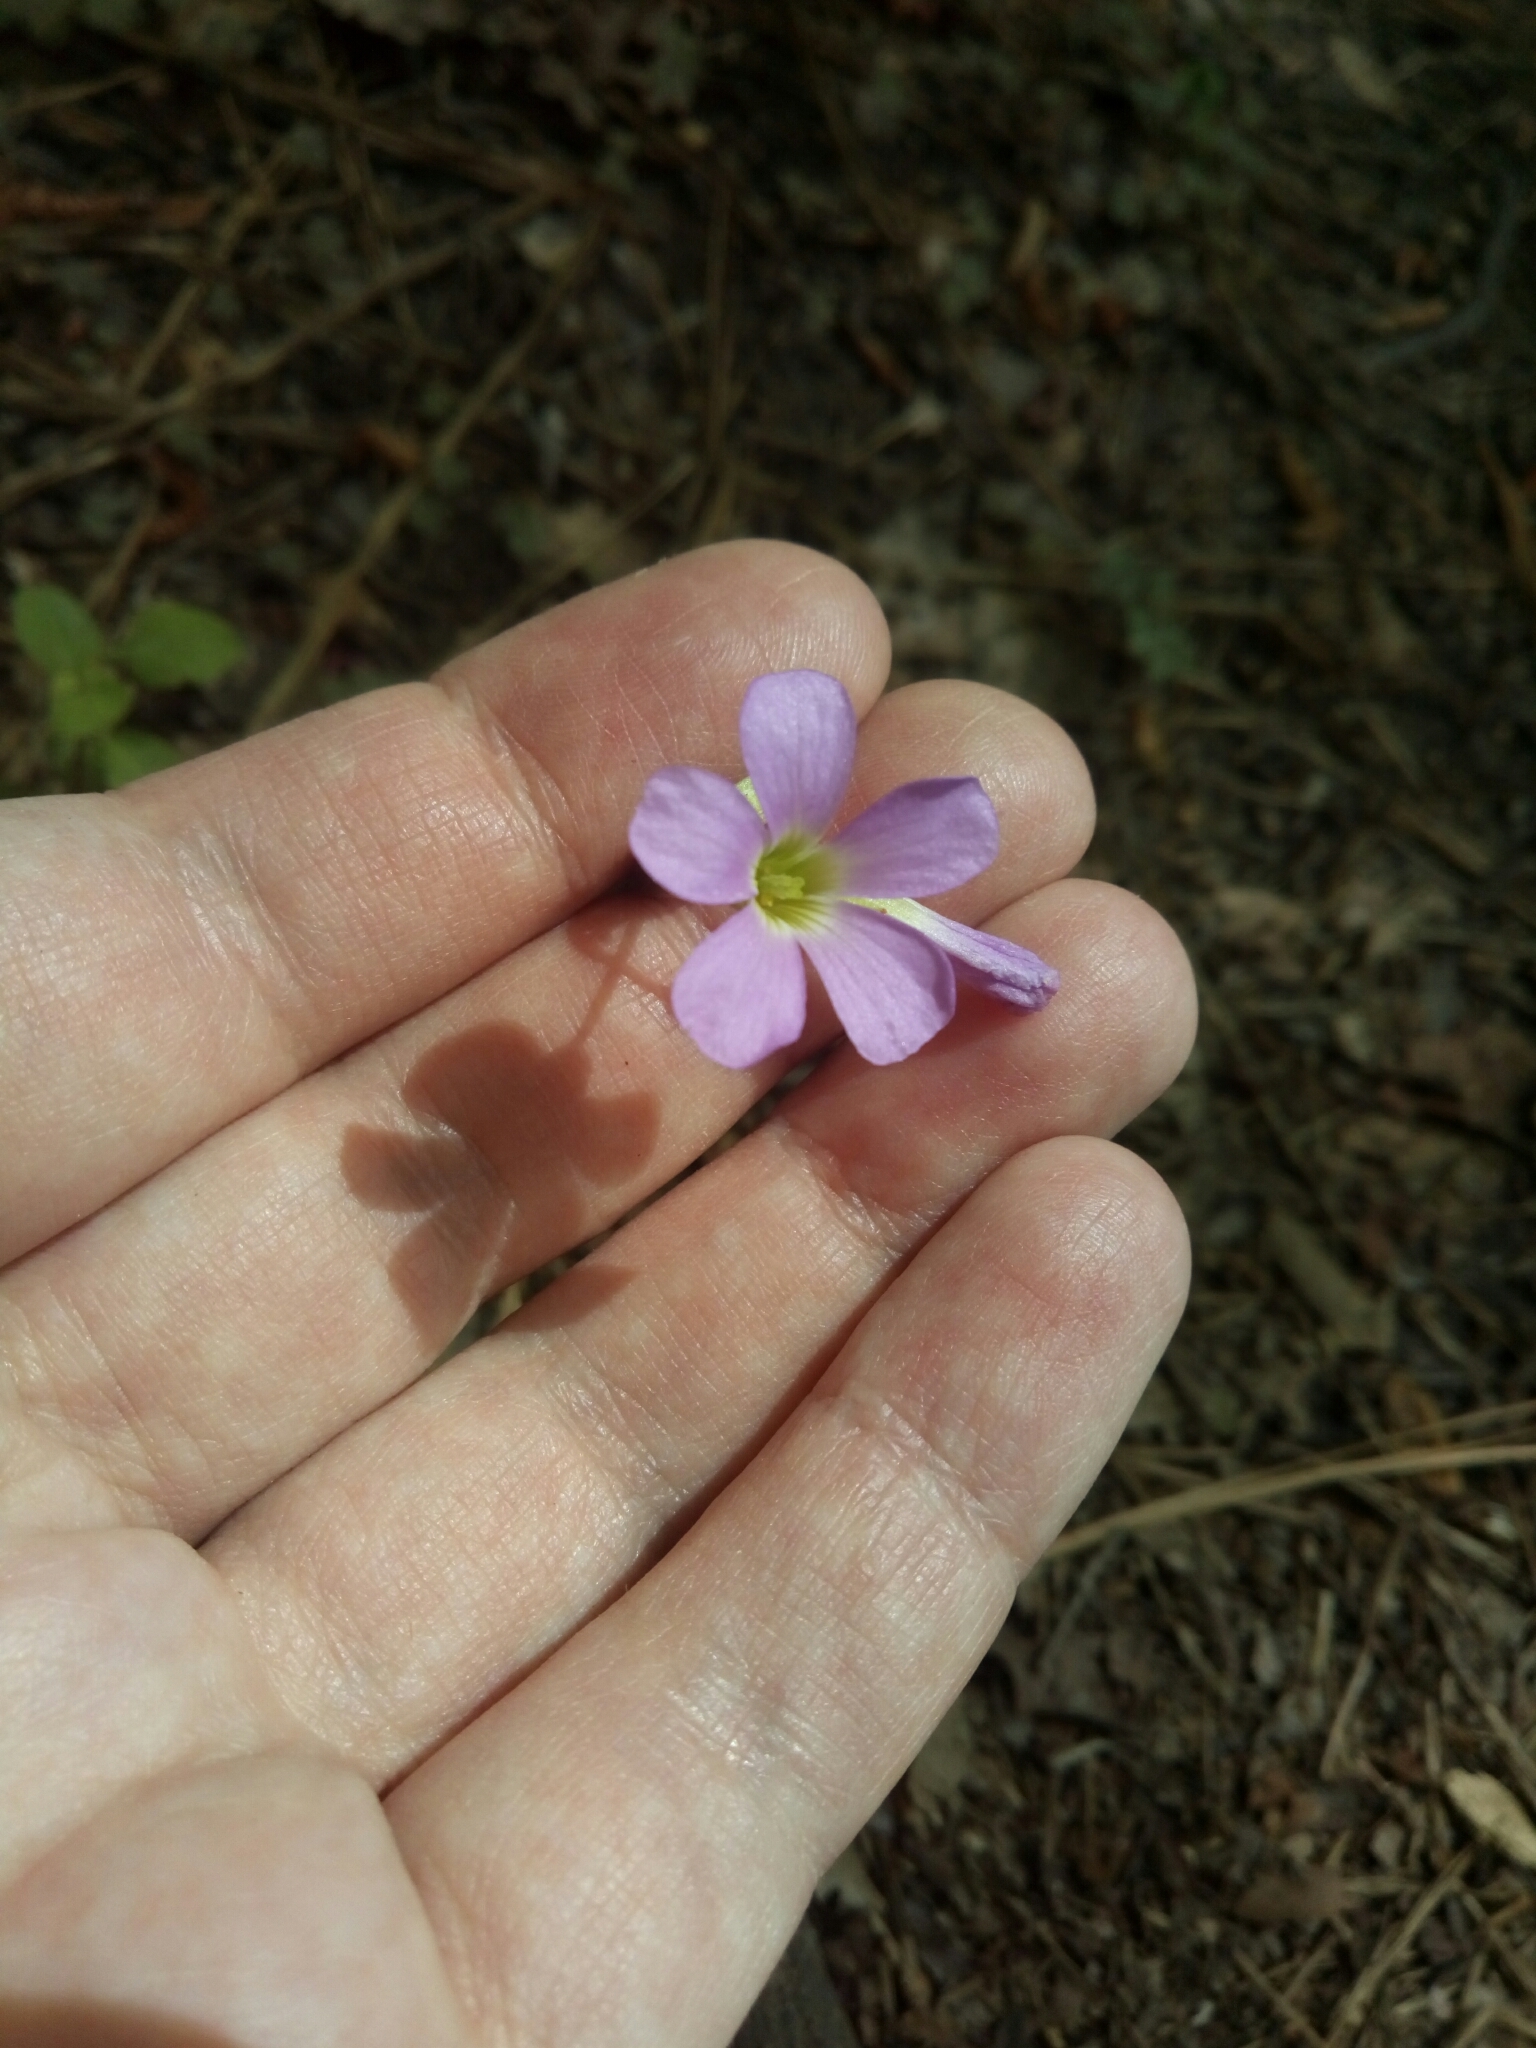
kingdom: Plantae
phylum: Tracheophyta
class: Magnoliopsida
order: Oxalidales
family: Oxalidaceae
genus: Oxalis
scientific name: Oxalis violacea
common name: Violet wood-sorrel
